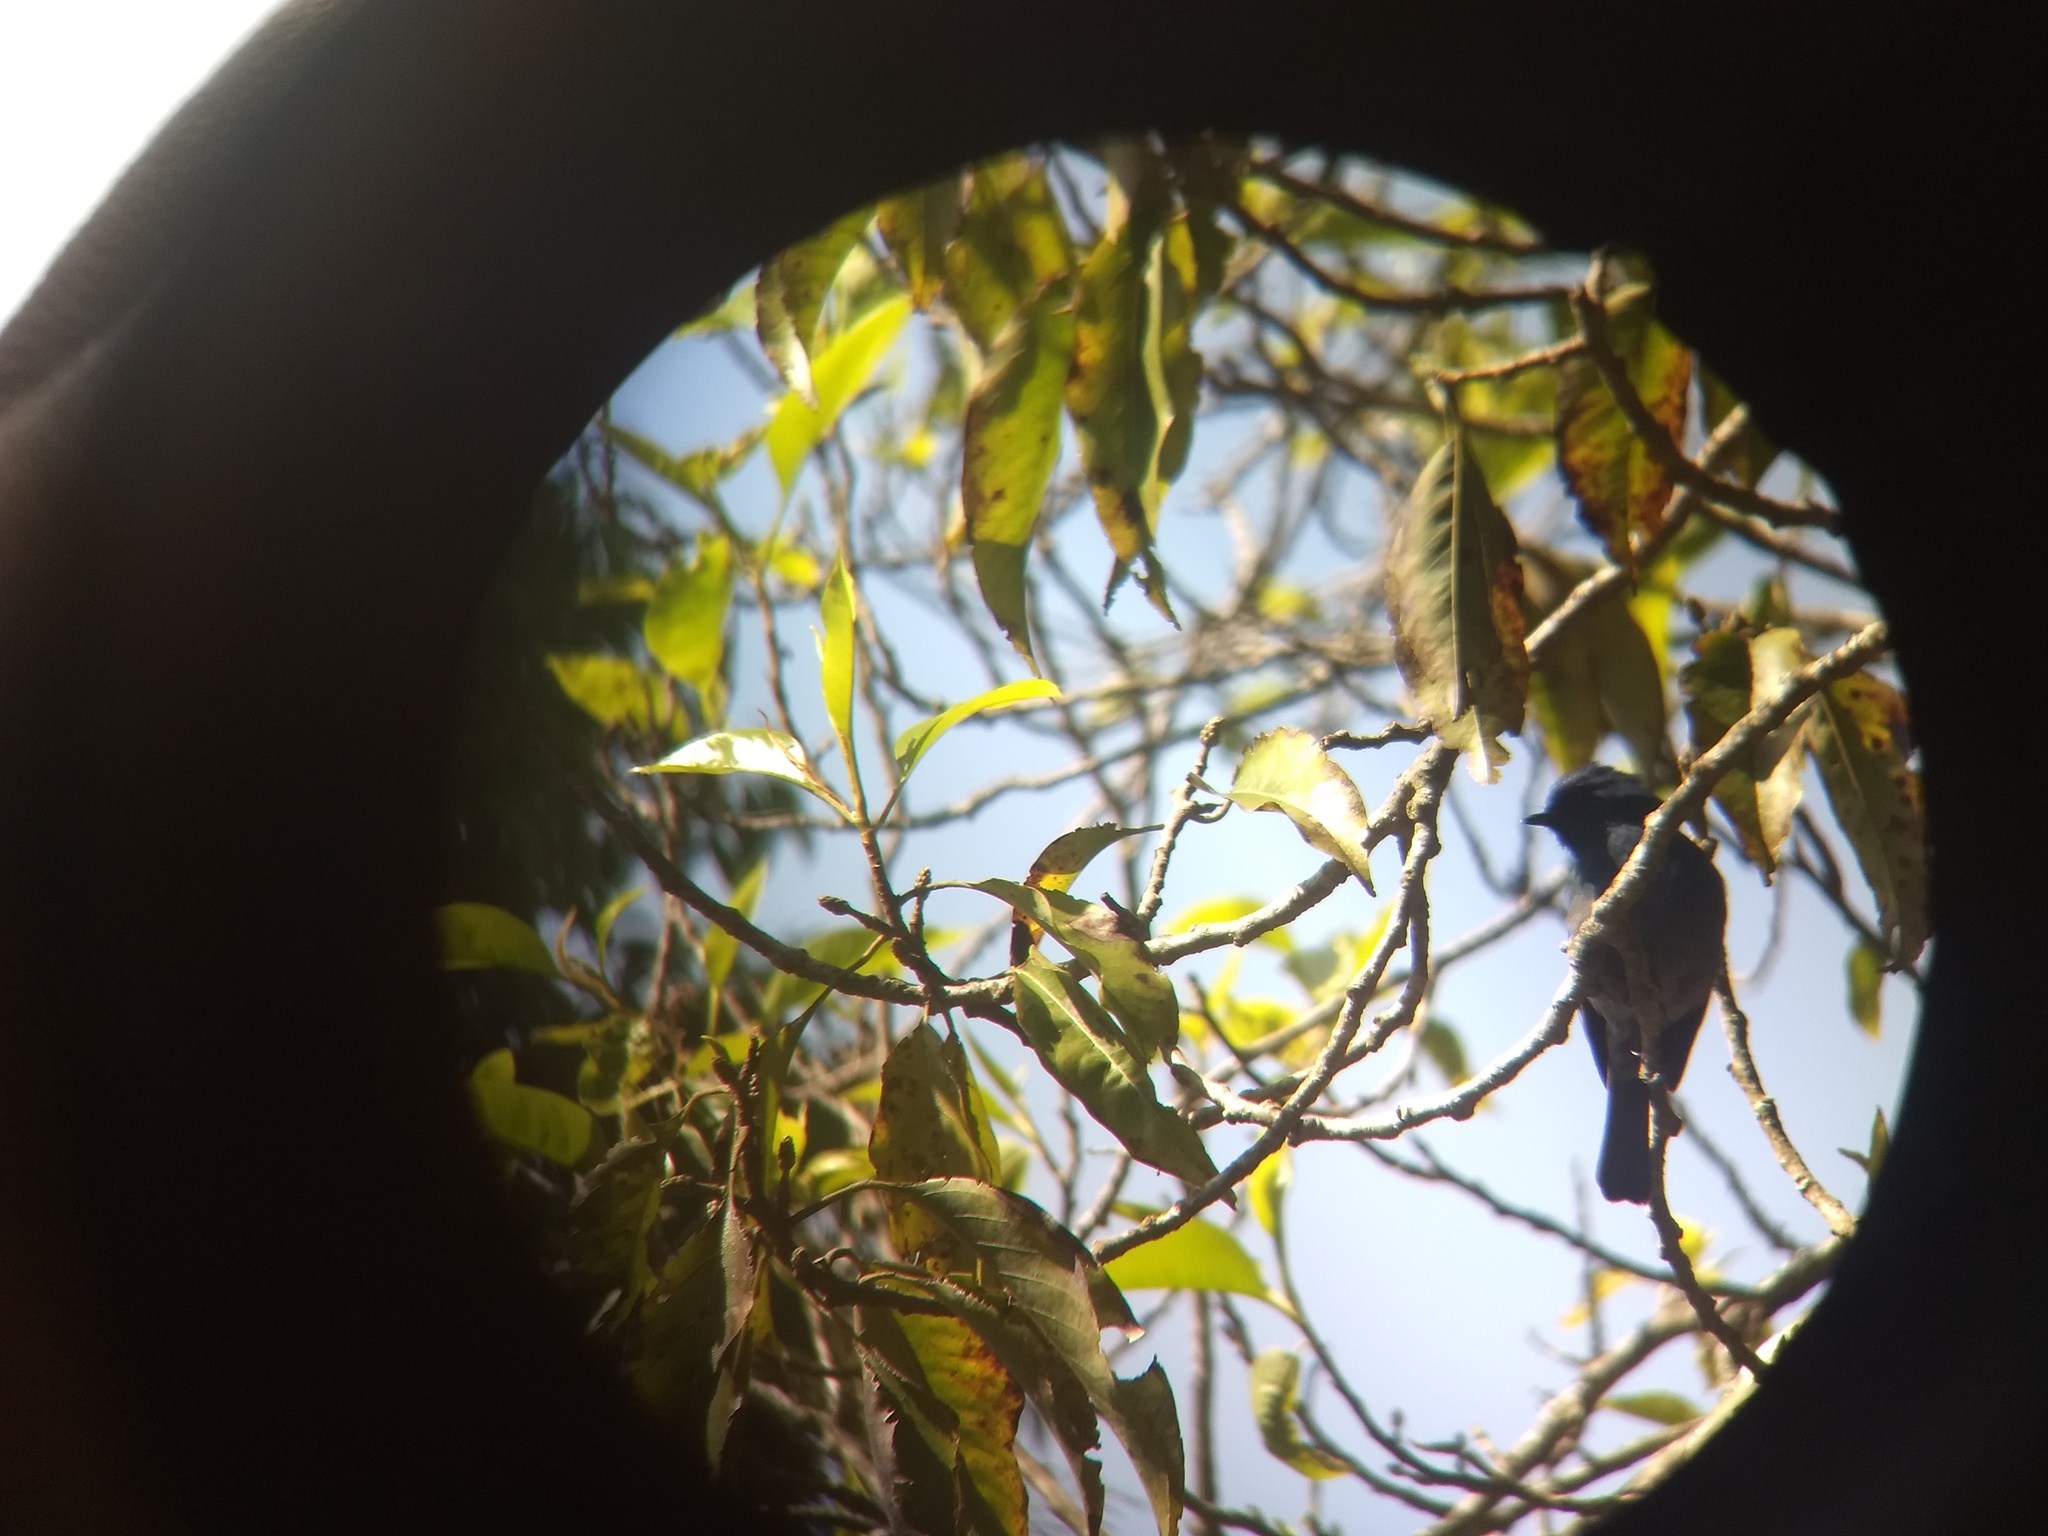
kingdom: Animalia
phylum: Chordata
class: Aves
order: Passeriformes
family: Muscicapidae
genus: Eumyias
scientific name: Eumyias albicaudatus
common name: Nilgiri flycatcher
